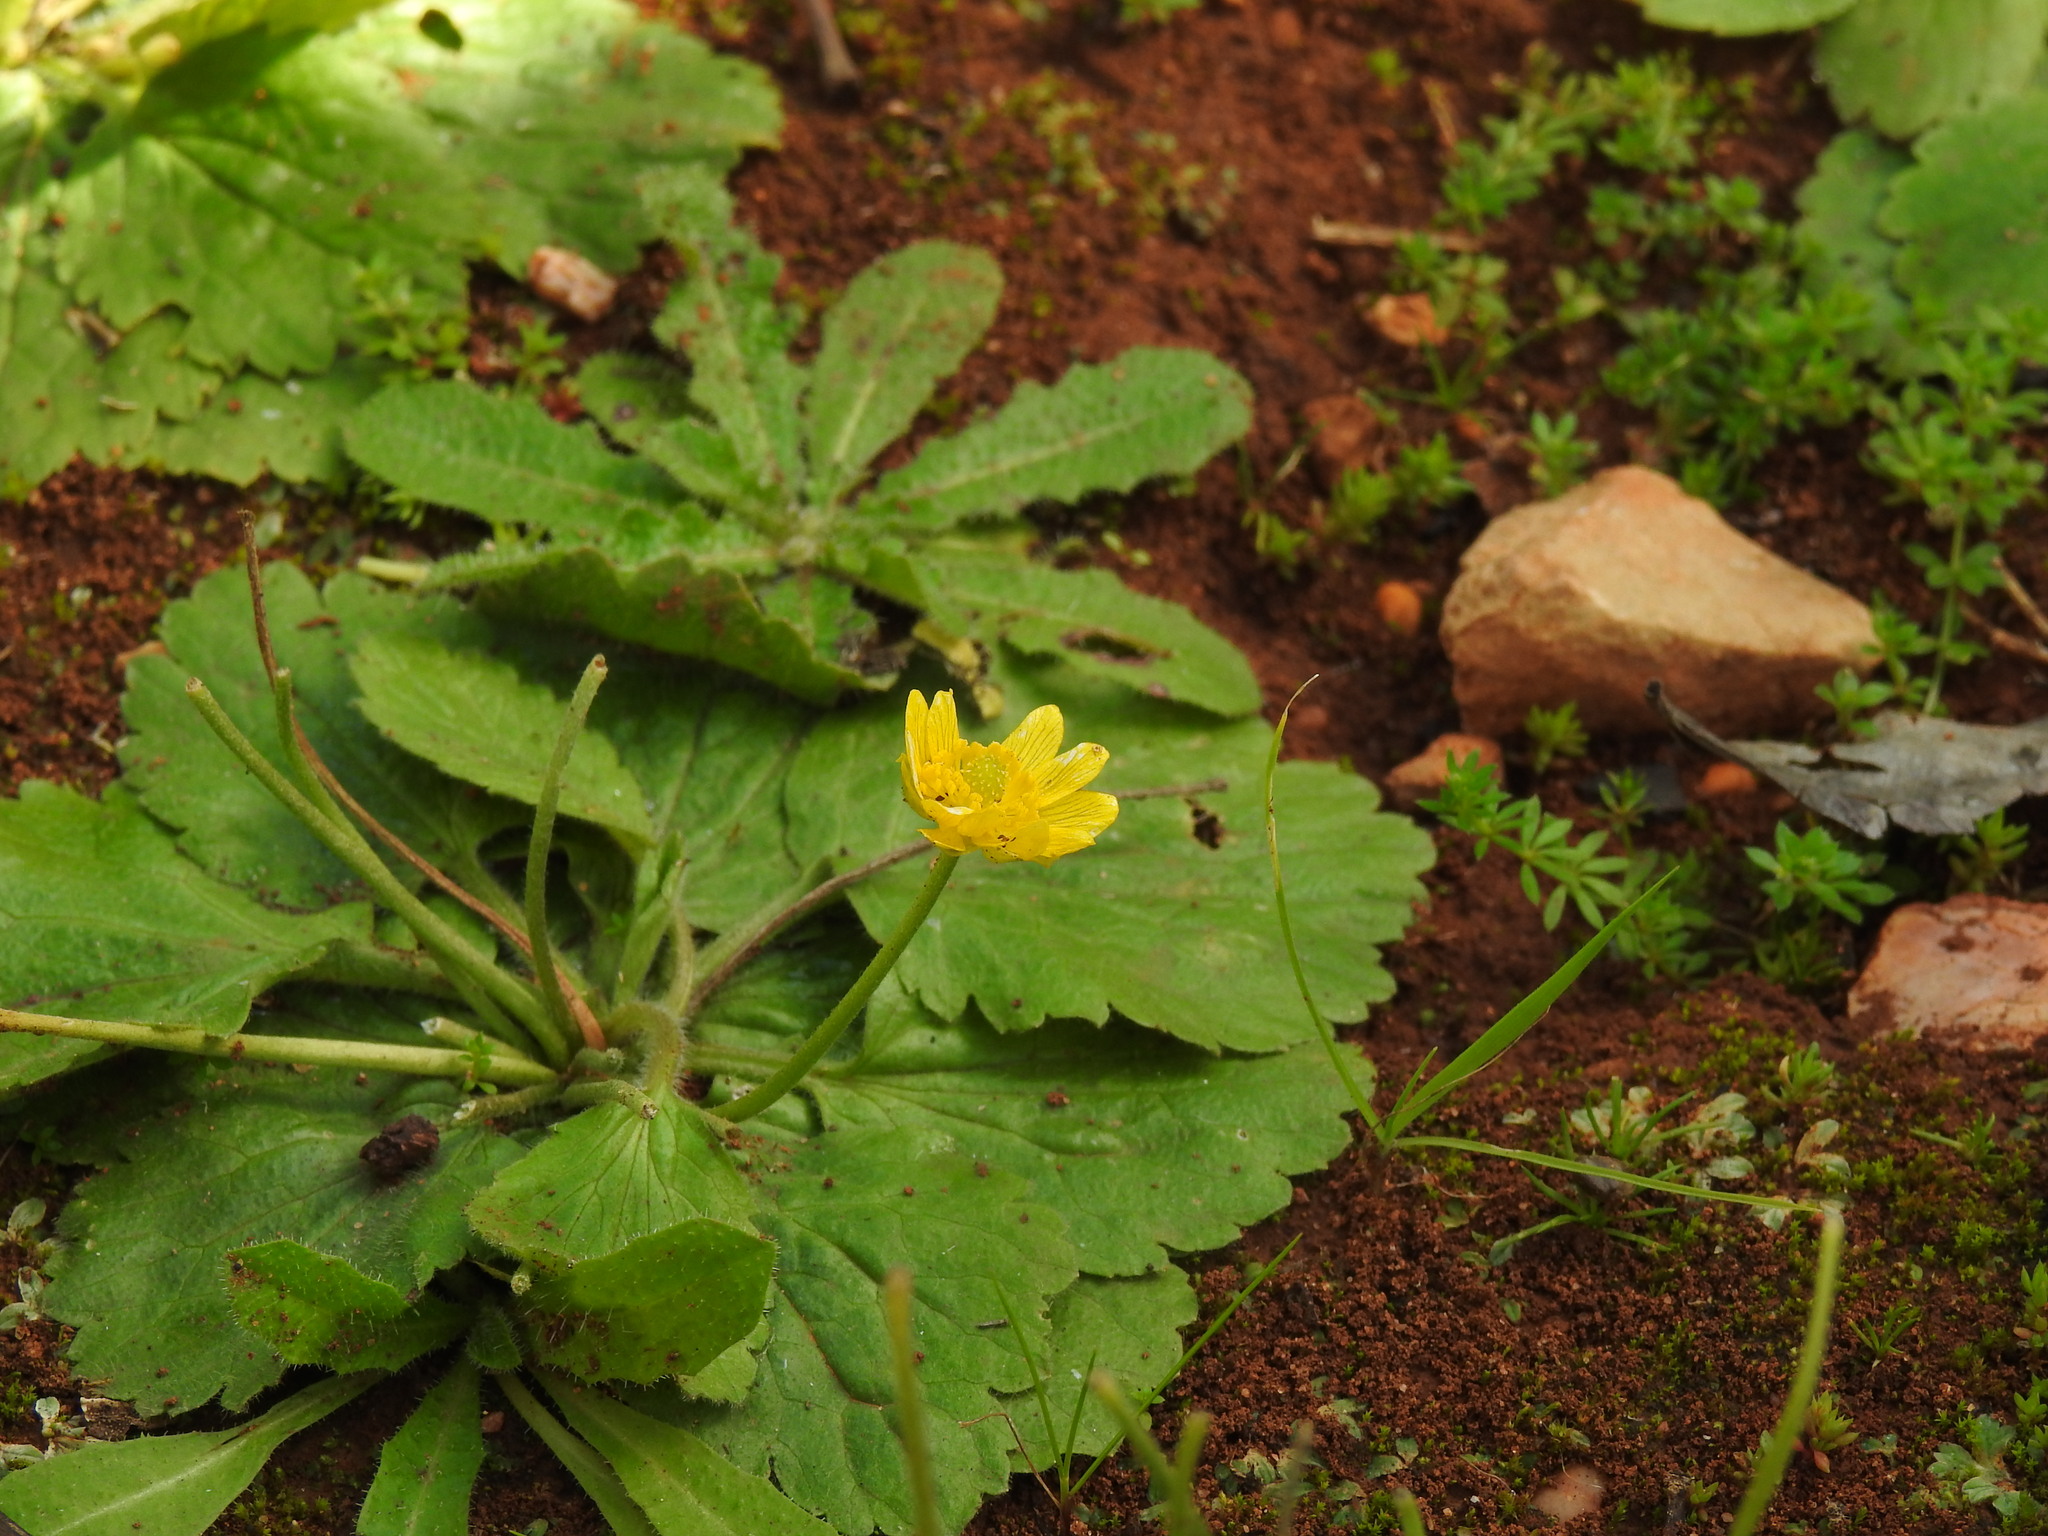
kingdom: Plantae
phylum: Tracheophyta
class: Magnoliopsida
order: Ranunculales
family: Ranunculaceae
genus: Ranunculus
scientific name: Ranunculus bullatus
